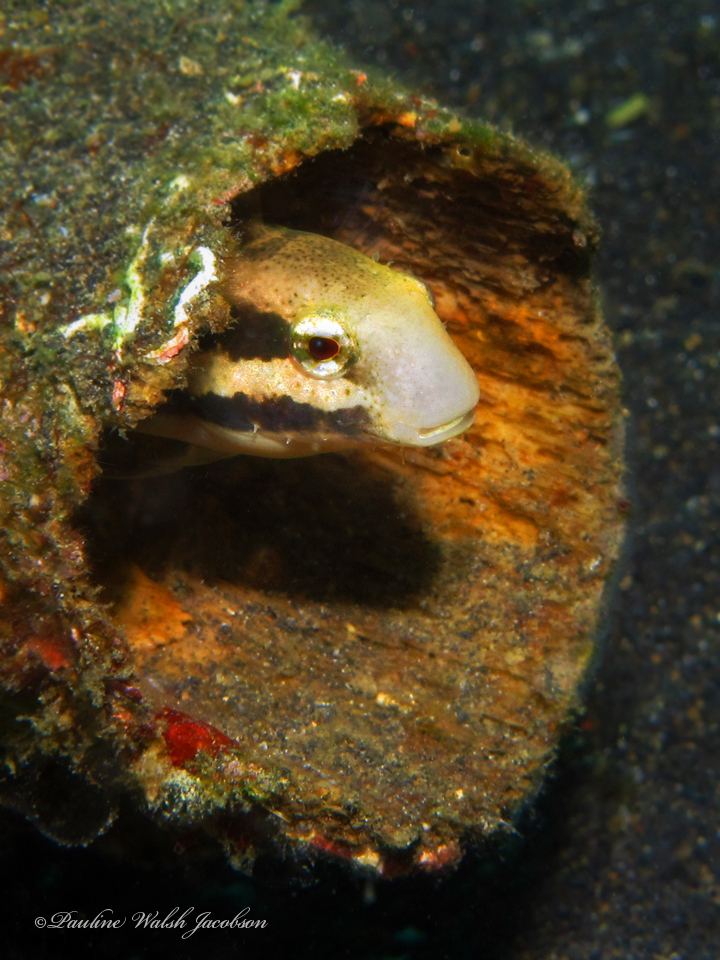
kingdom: Animalia
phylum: Chordata
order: Perciformes
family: Blenniidae
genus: Petroscirtes
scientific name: Petroscirtes breviceps
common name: Short-head sabretooth blenny
